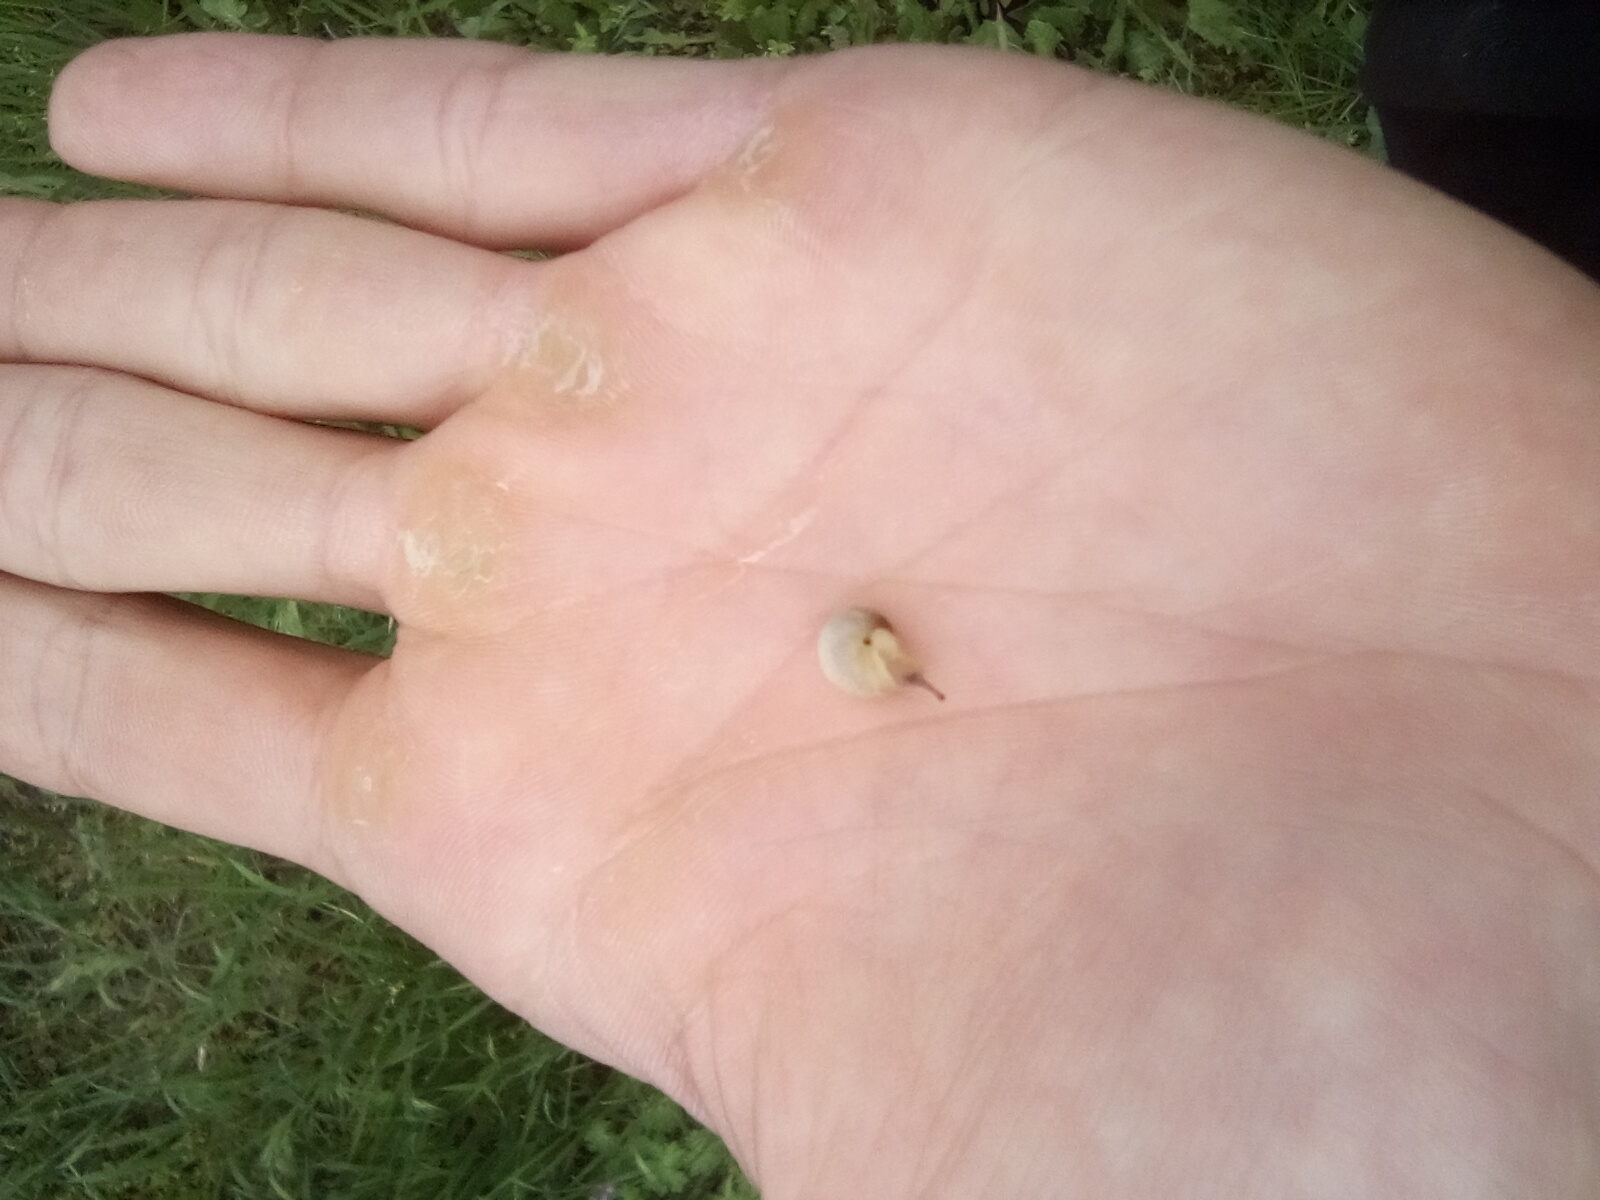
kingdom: Animalia
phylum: Mollusca
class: Gastropoda
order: Stylommatophora
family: Hygromiidae
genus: Monacha
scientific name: Monacha cartusiana
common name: Carthusian snail
